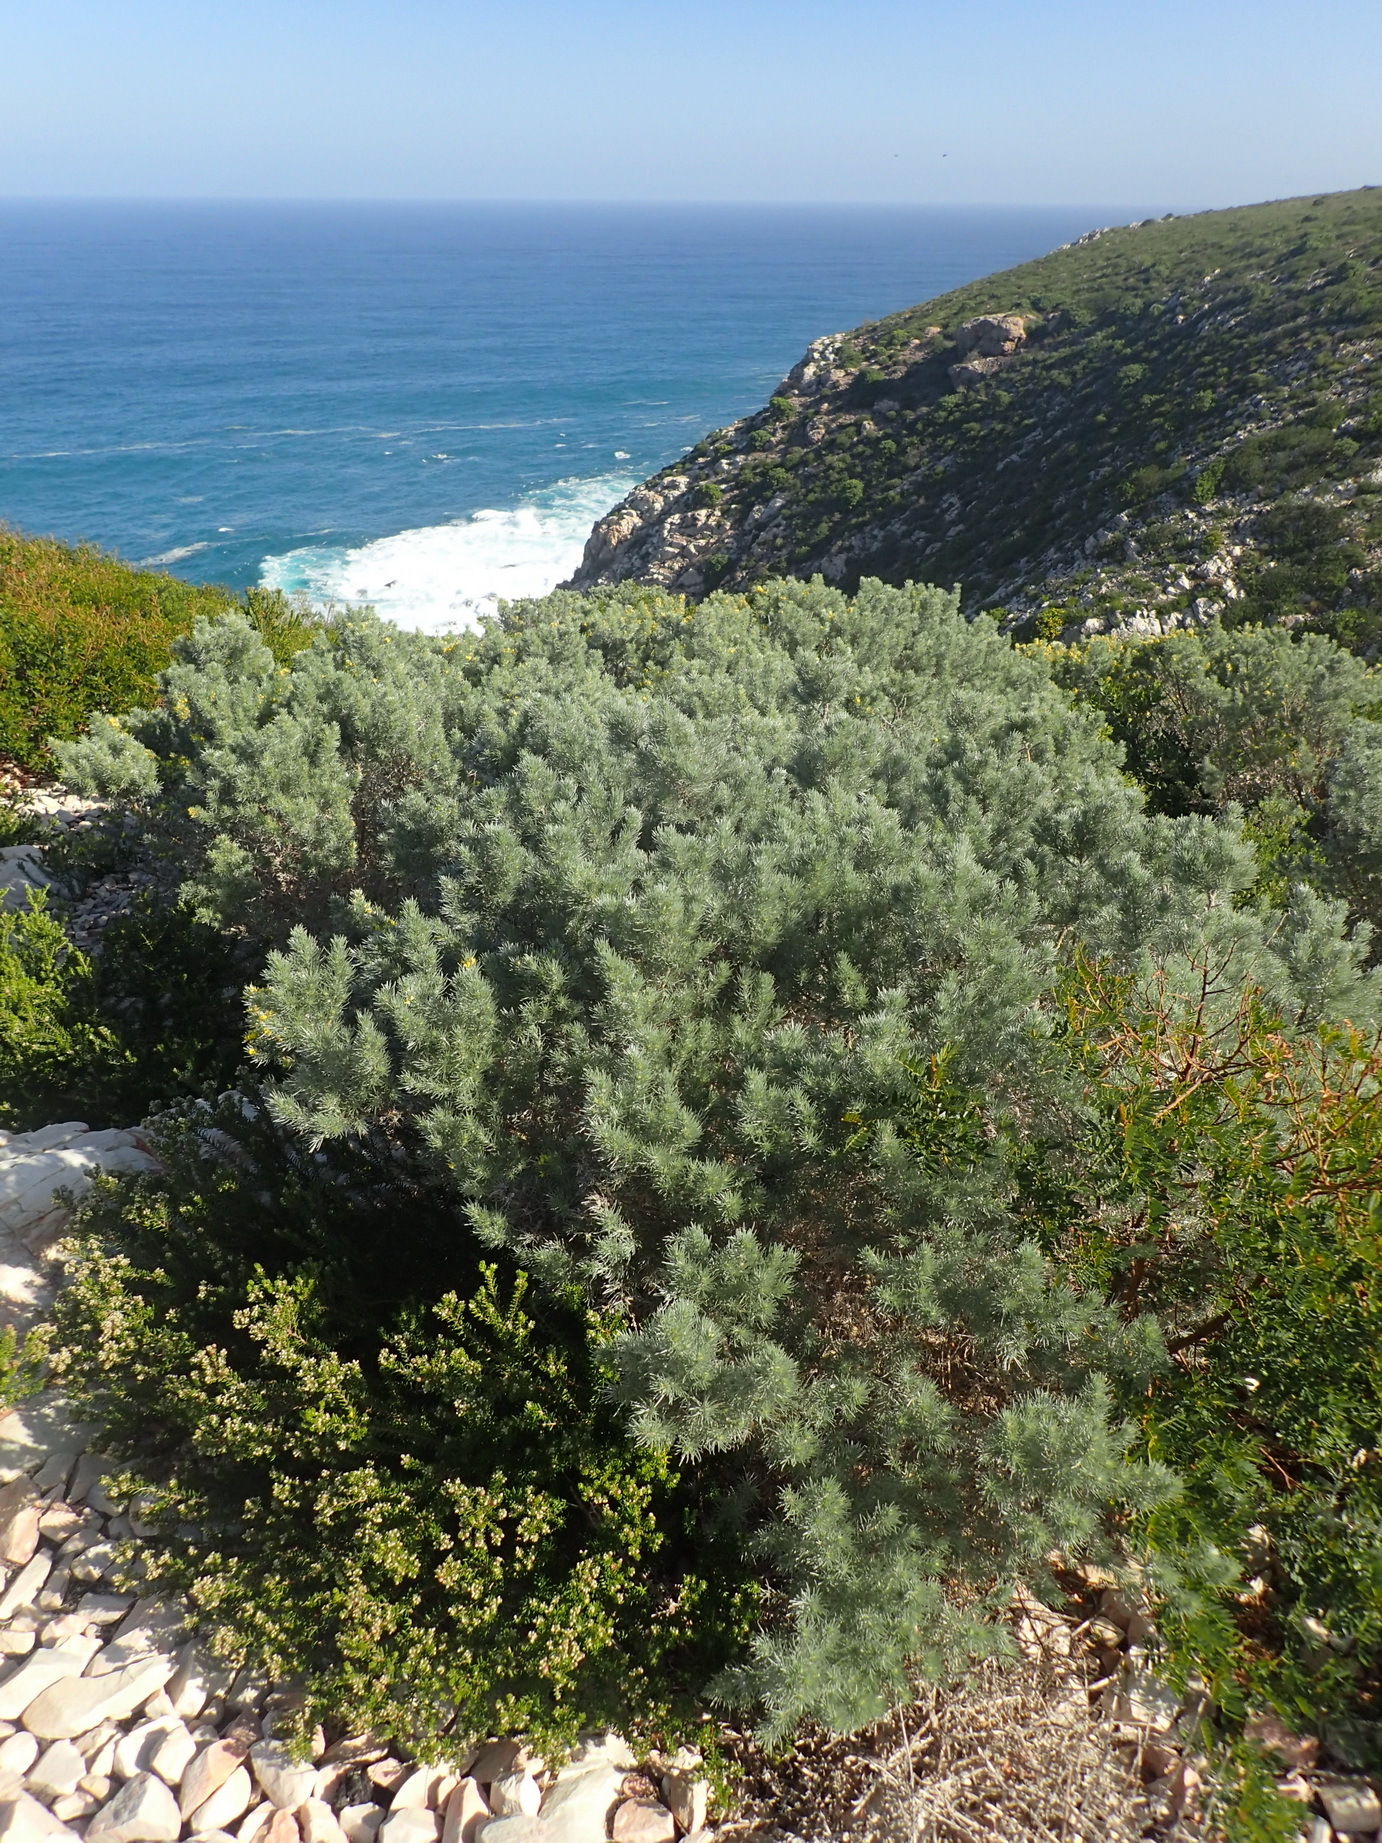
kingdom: Plantae
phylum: Tracheophyta
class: Magnoliopsida
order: Fabales
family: Fabaceae
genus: Aspalathus
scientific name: Aspalathus florifera
